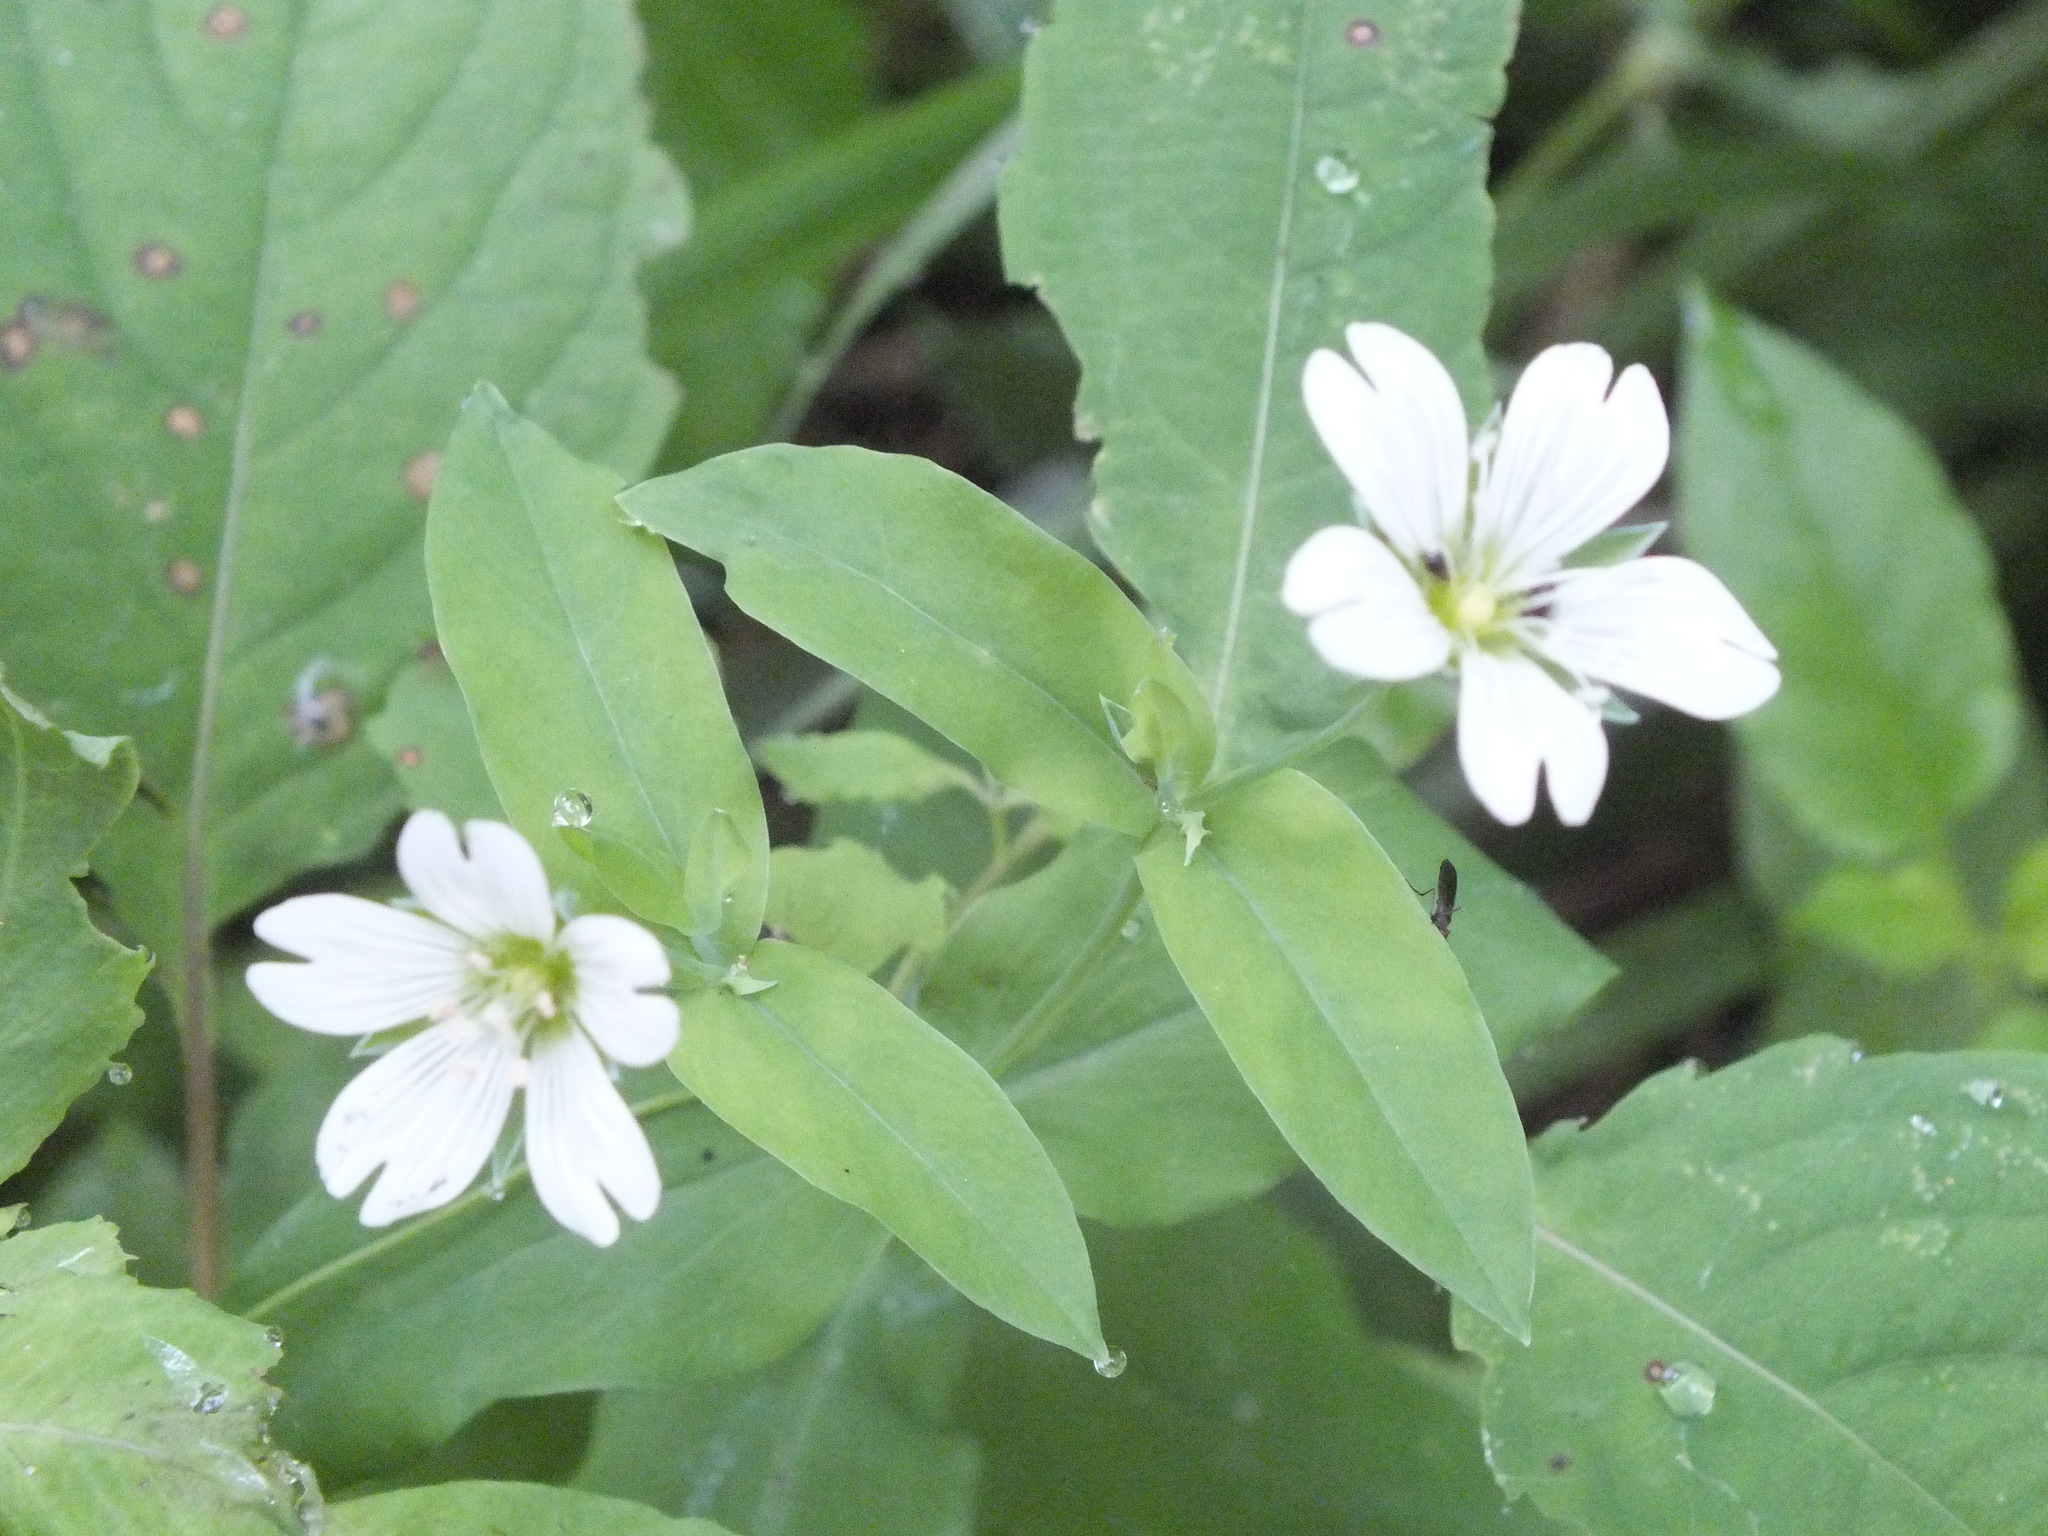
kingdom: Plantae
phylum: Tracheophyta
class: Magnoliopsida
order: Caryophyllales
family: Caryophyllaceae
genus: Cerastium
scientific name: Cerastium davuricum
